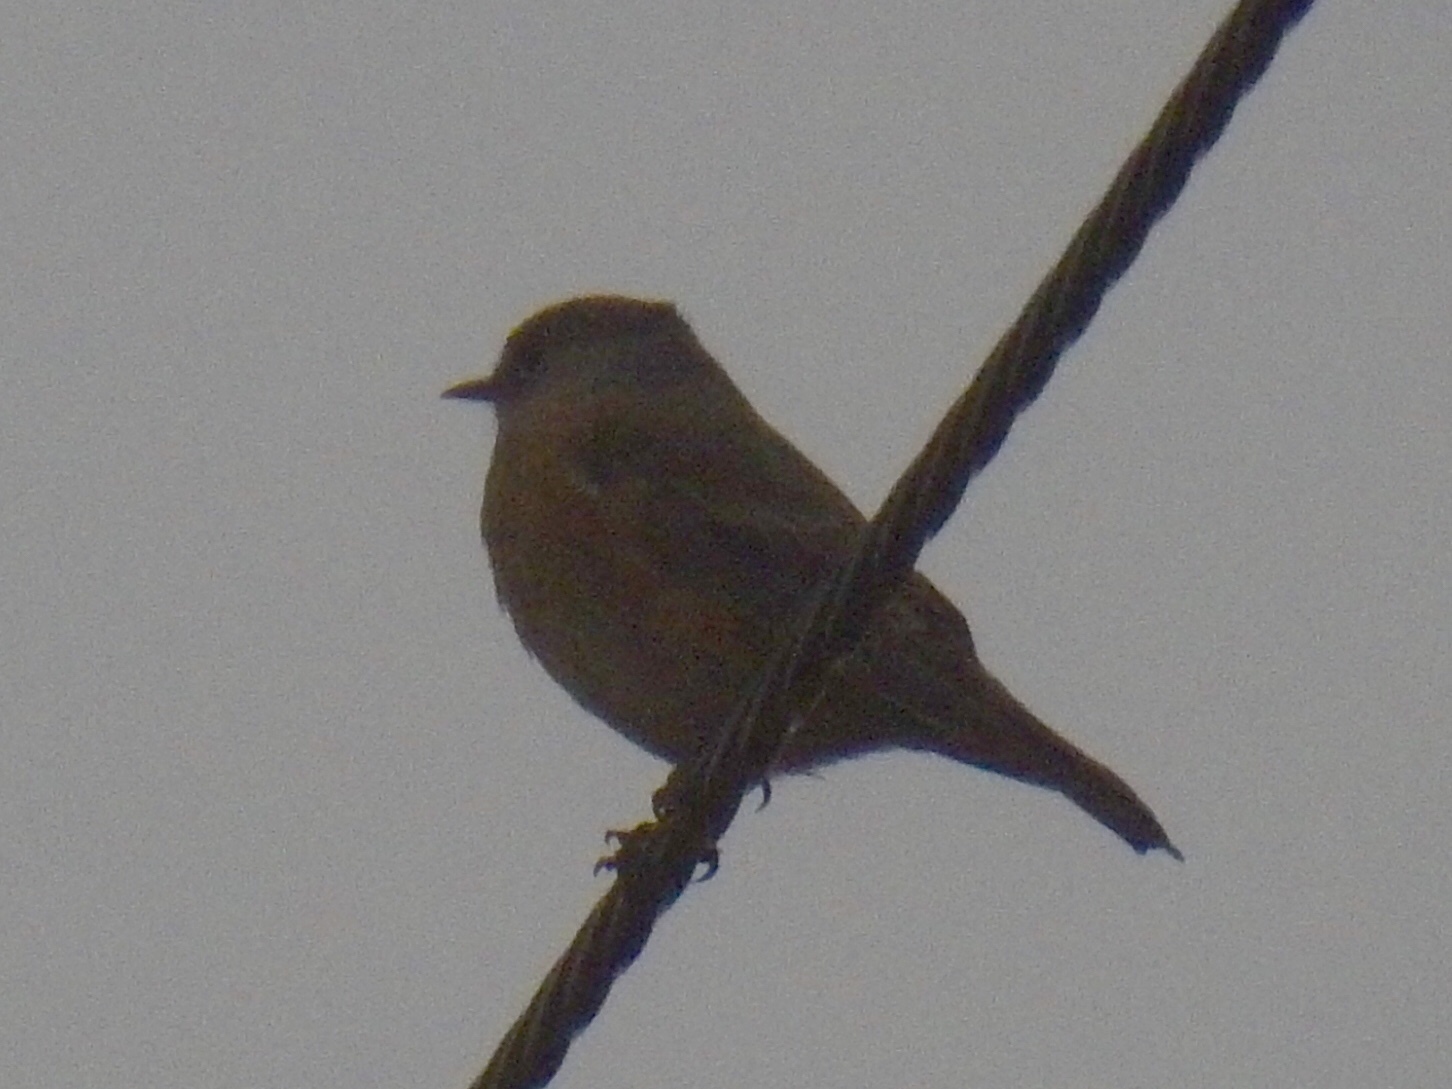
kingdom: Animalia
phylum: Chordata
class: Aves
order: Passeriformes
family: Turdidae
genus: Sialia
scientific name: Sialia mexicana
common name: Western bluebird
